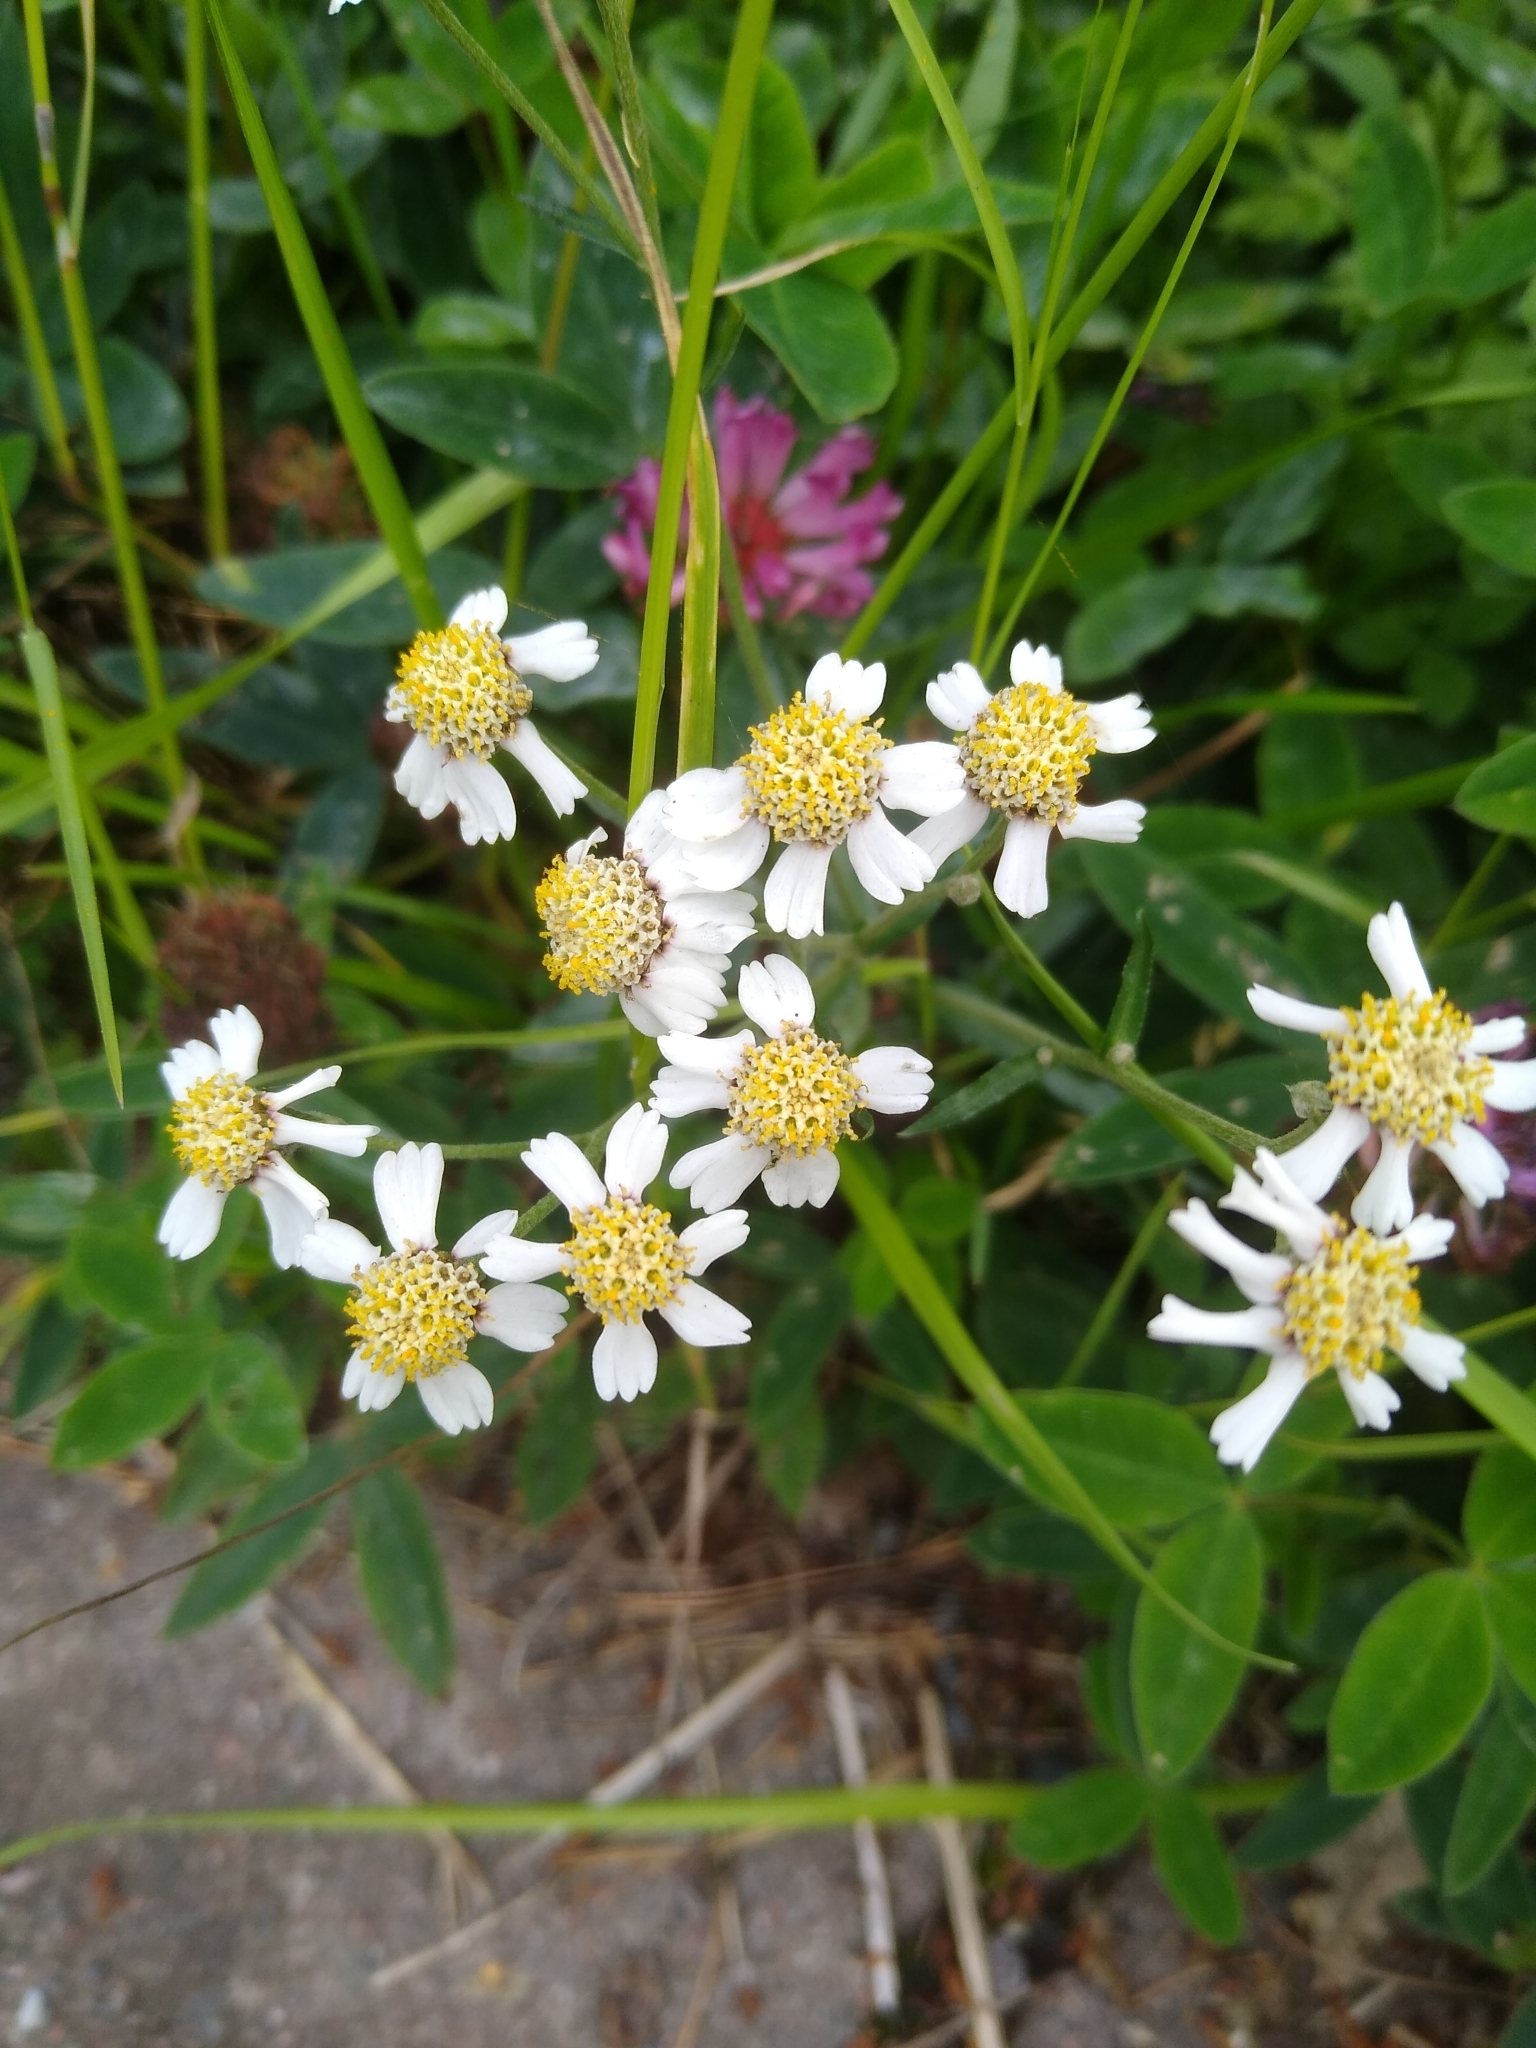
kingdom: Plantae
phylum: Tracheophyta
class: Magnoliopsida
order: Asterales
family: Asteraceae
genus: Achillea
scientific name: Achillea ptarmica
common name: Sneezeweed
